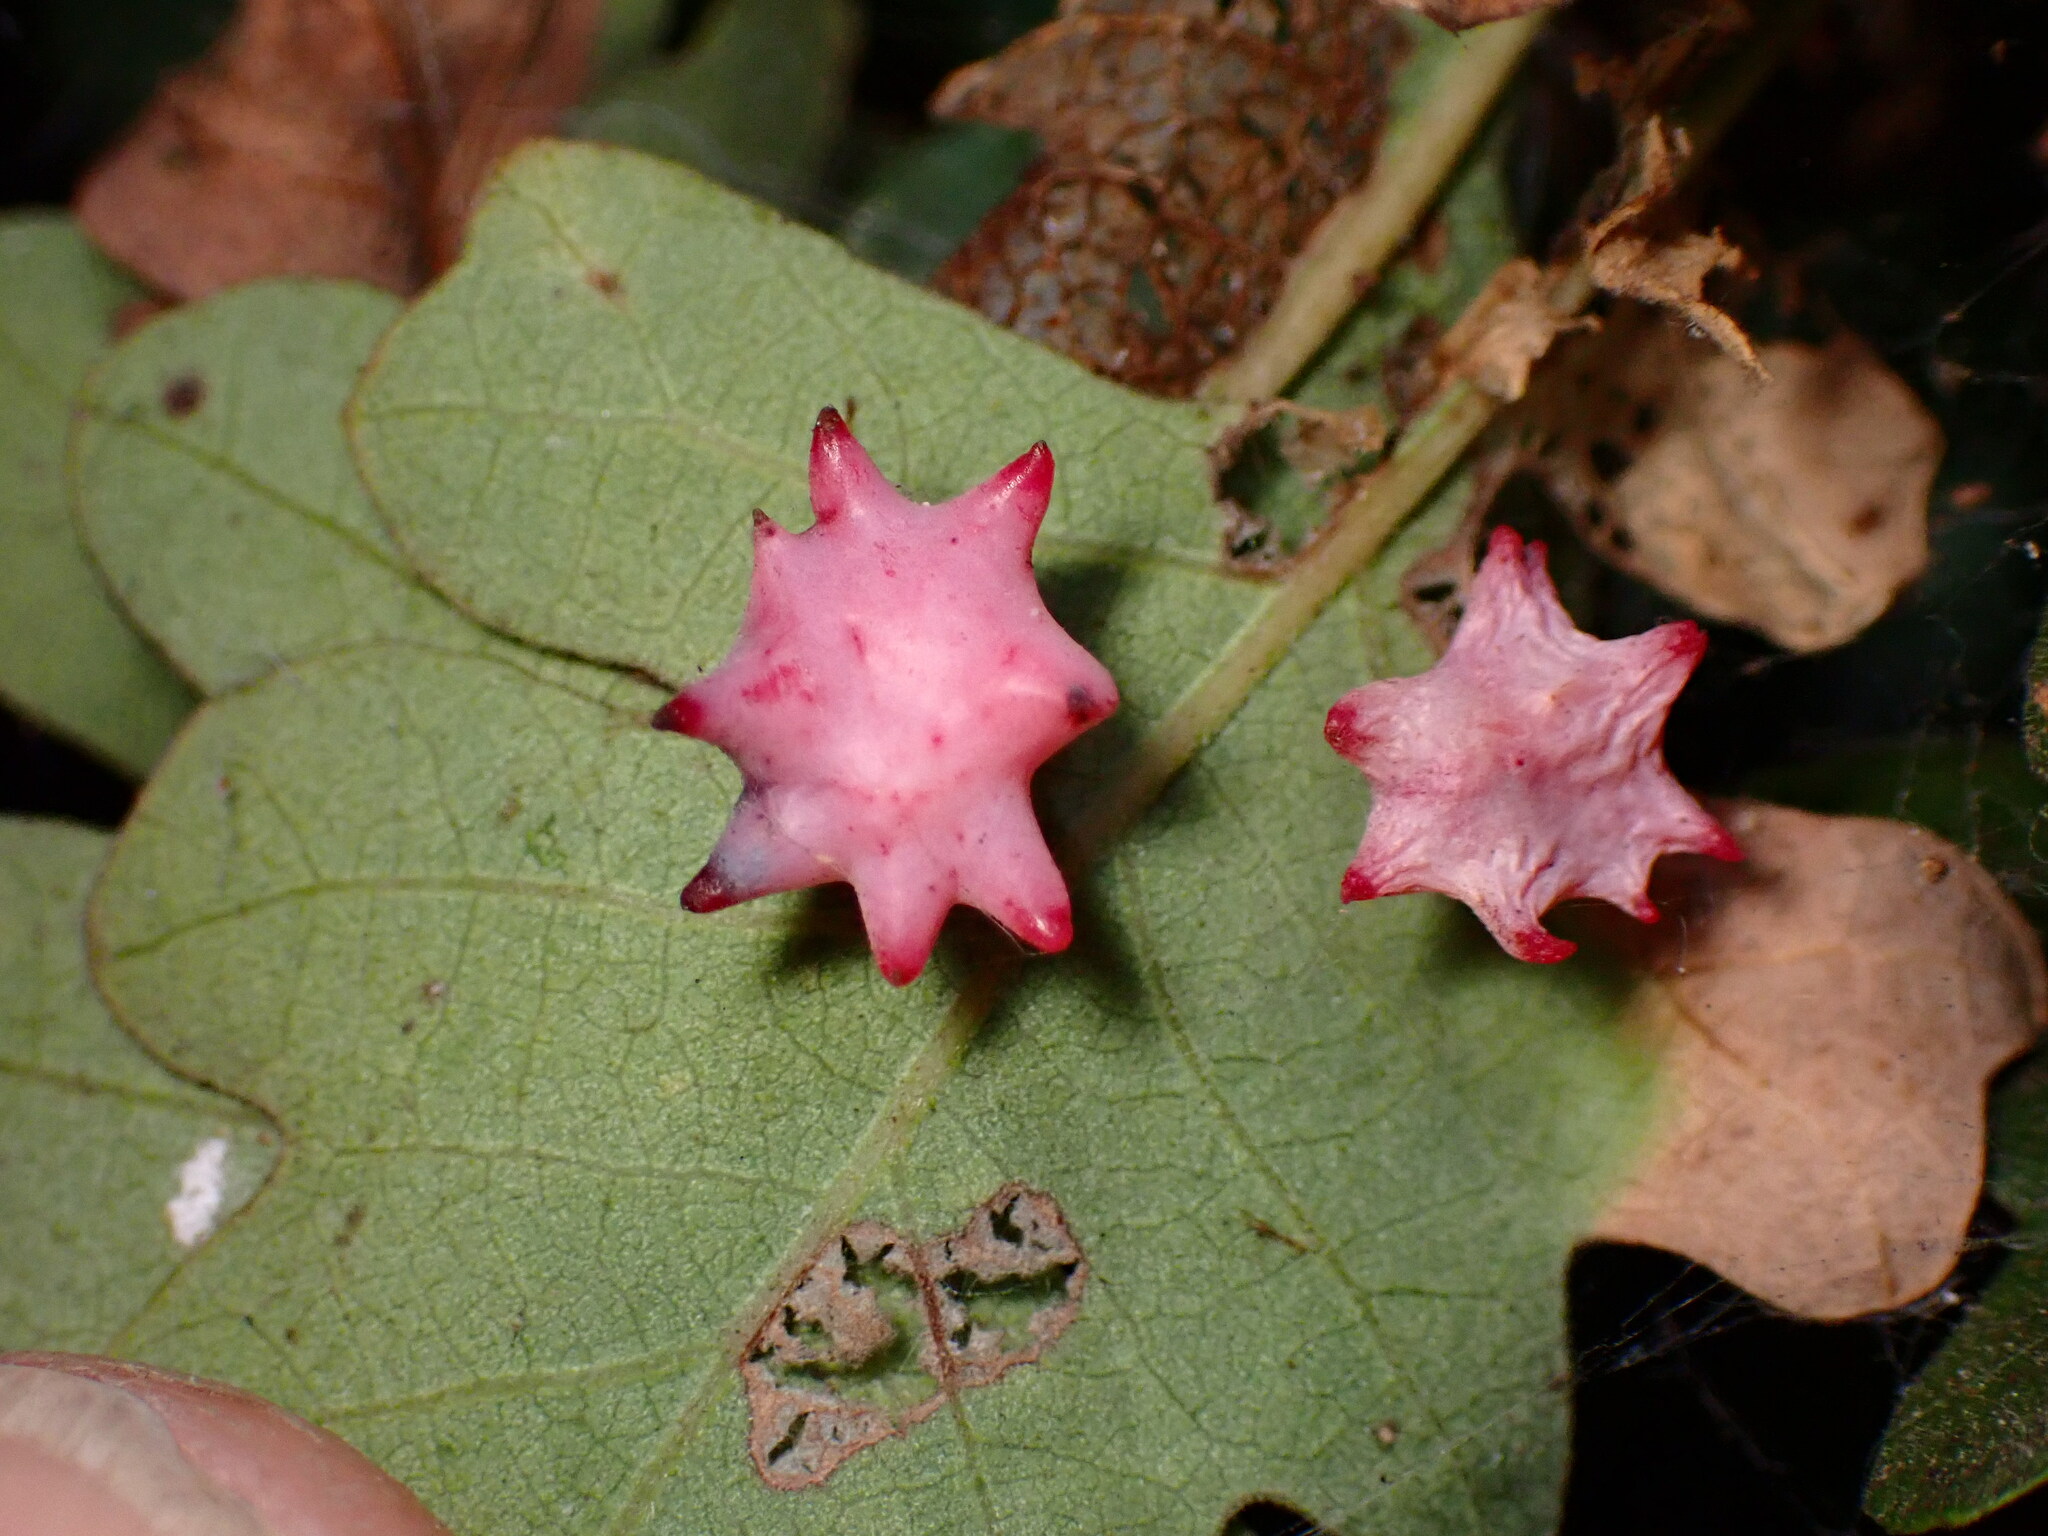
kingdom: Animalia
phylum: Arthropoda
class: Insecta
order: Hymenoptera
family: Cynipidae
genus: Cynips
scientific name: Cynips douglasi
